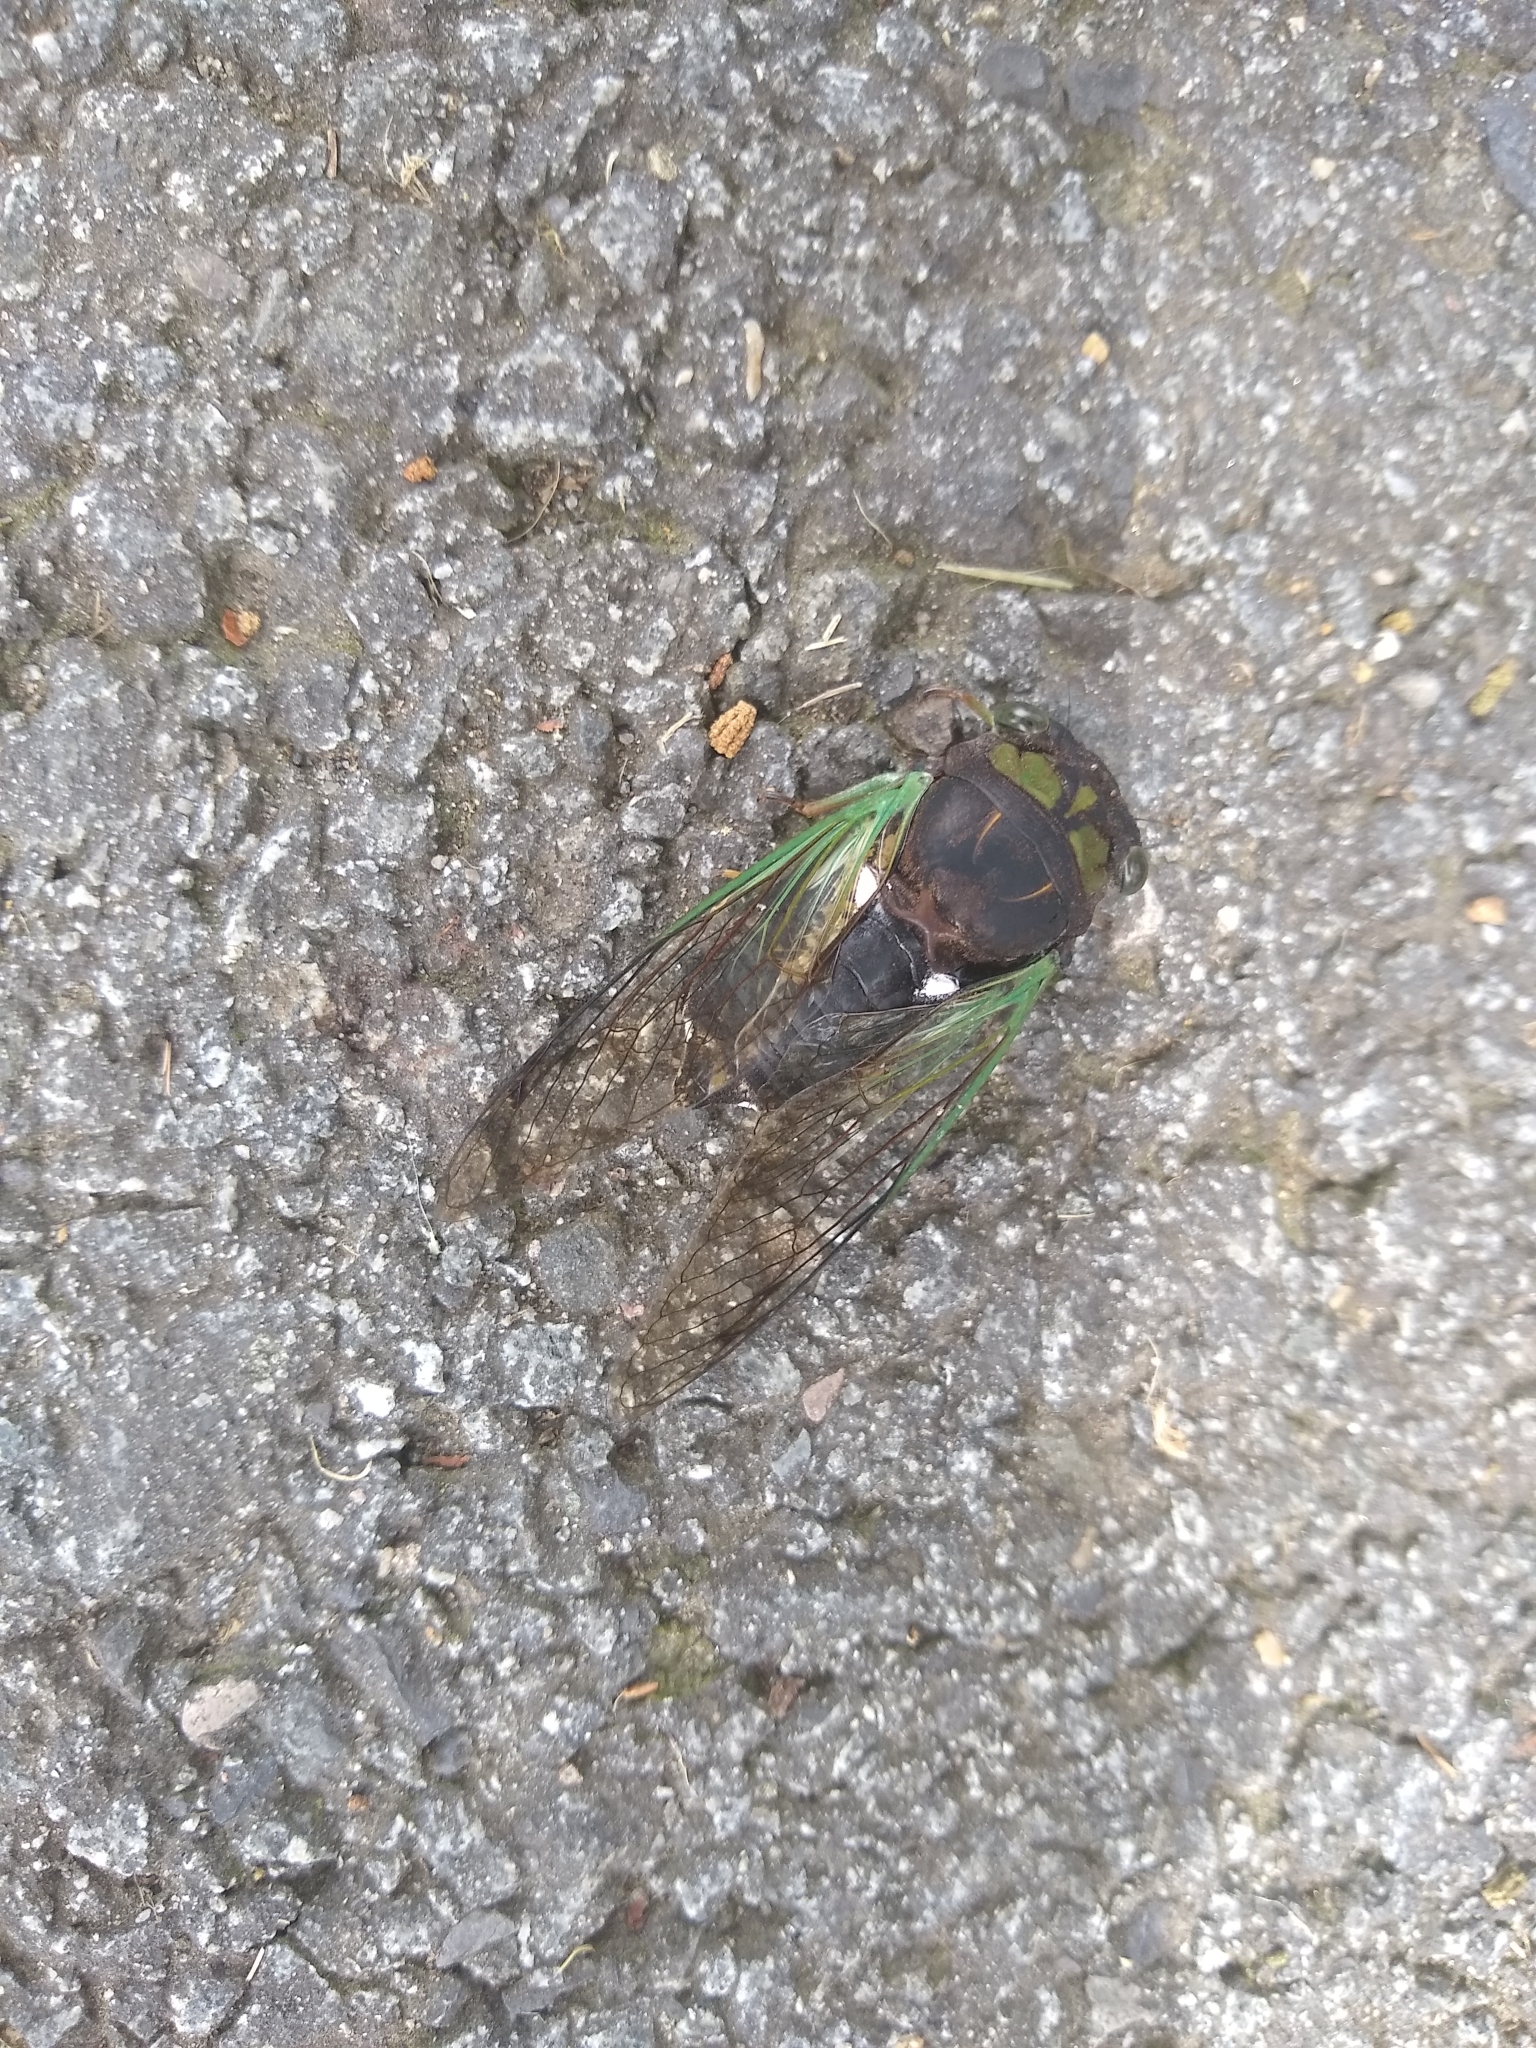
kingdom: Animalia
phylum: Arthropoda
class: Insecta
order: Hemiptera
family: Cicadidae
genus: Neotibicen
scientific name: Neotibicen tibicen
